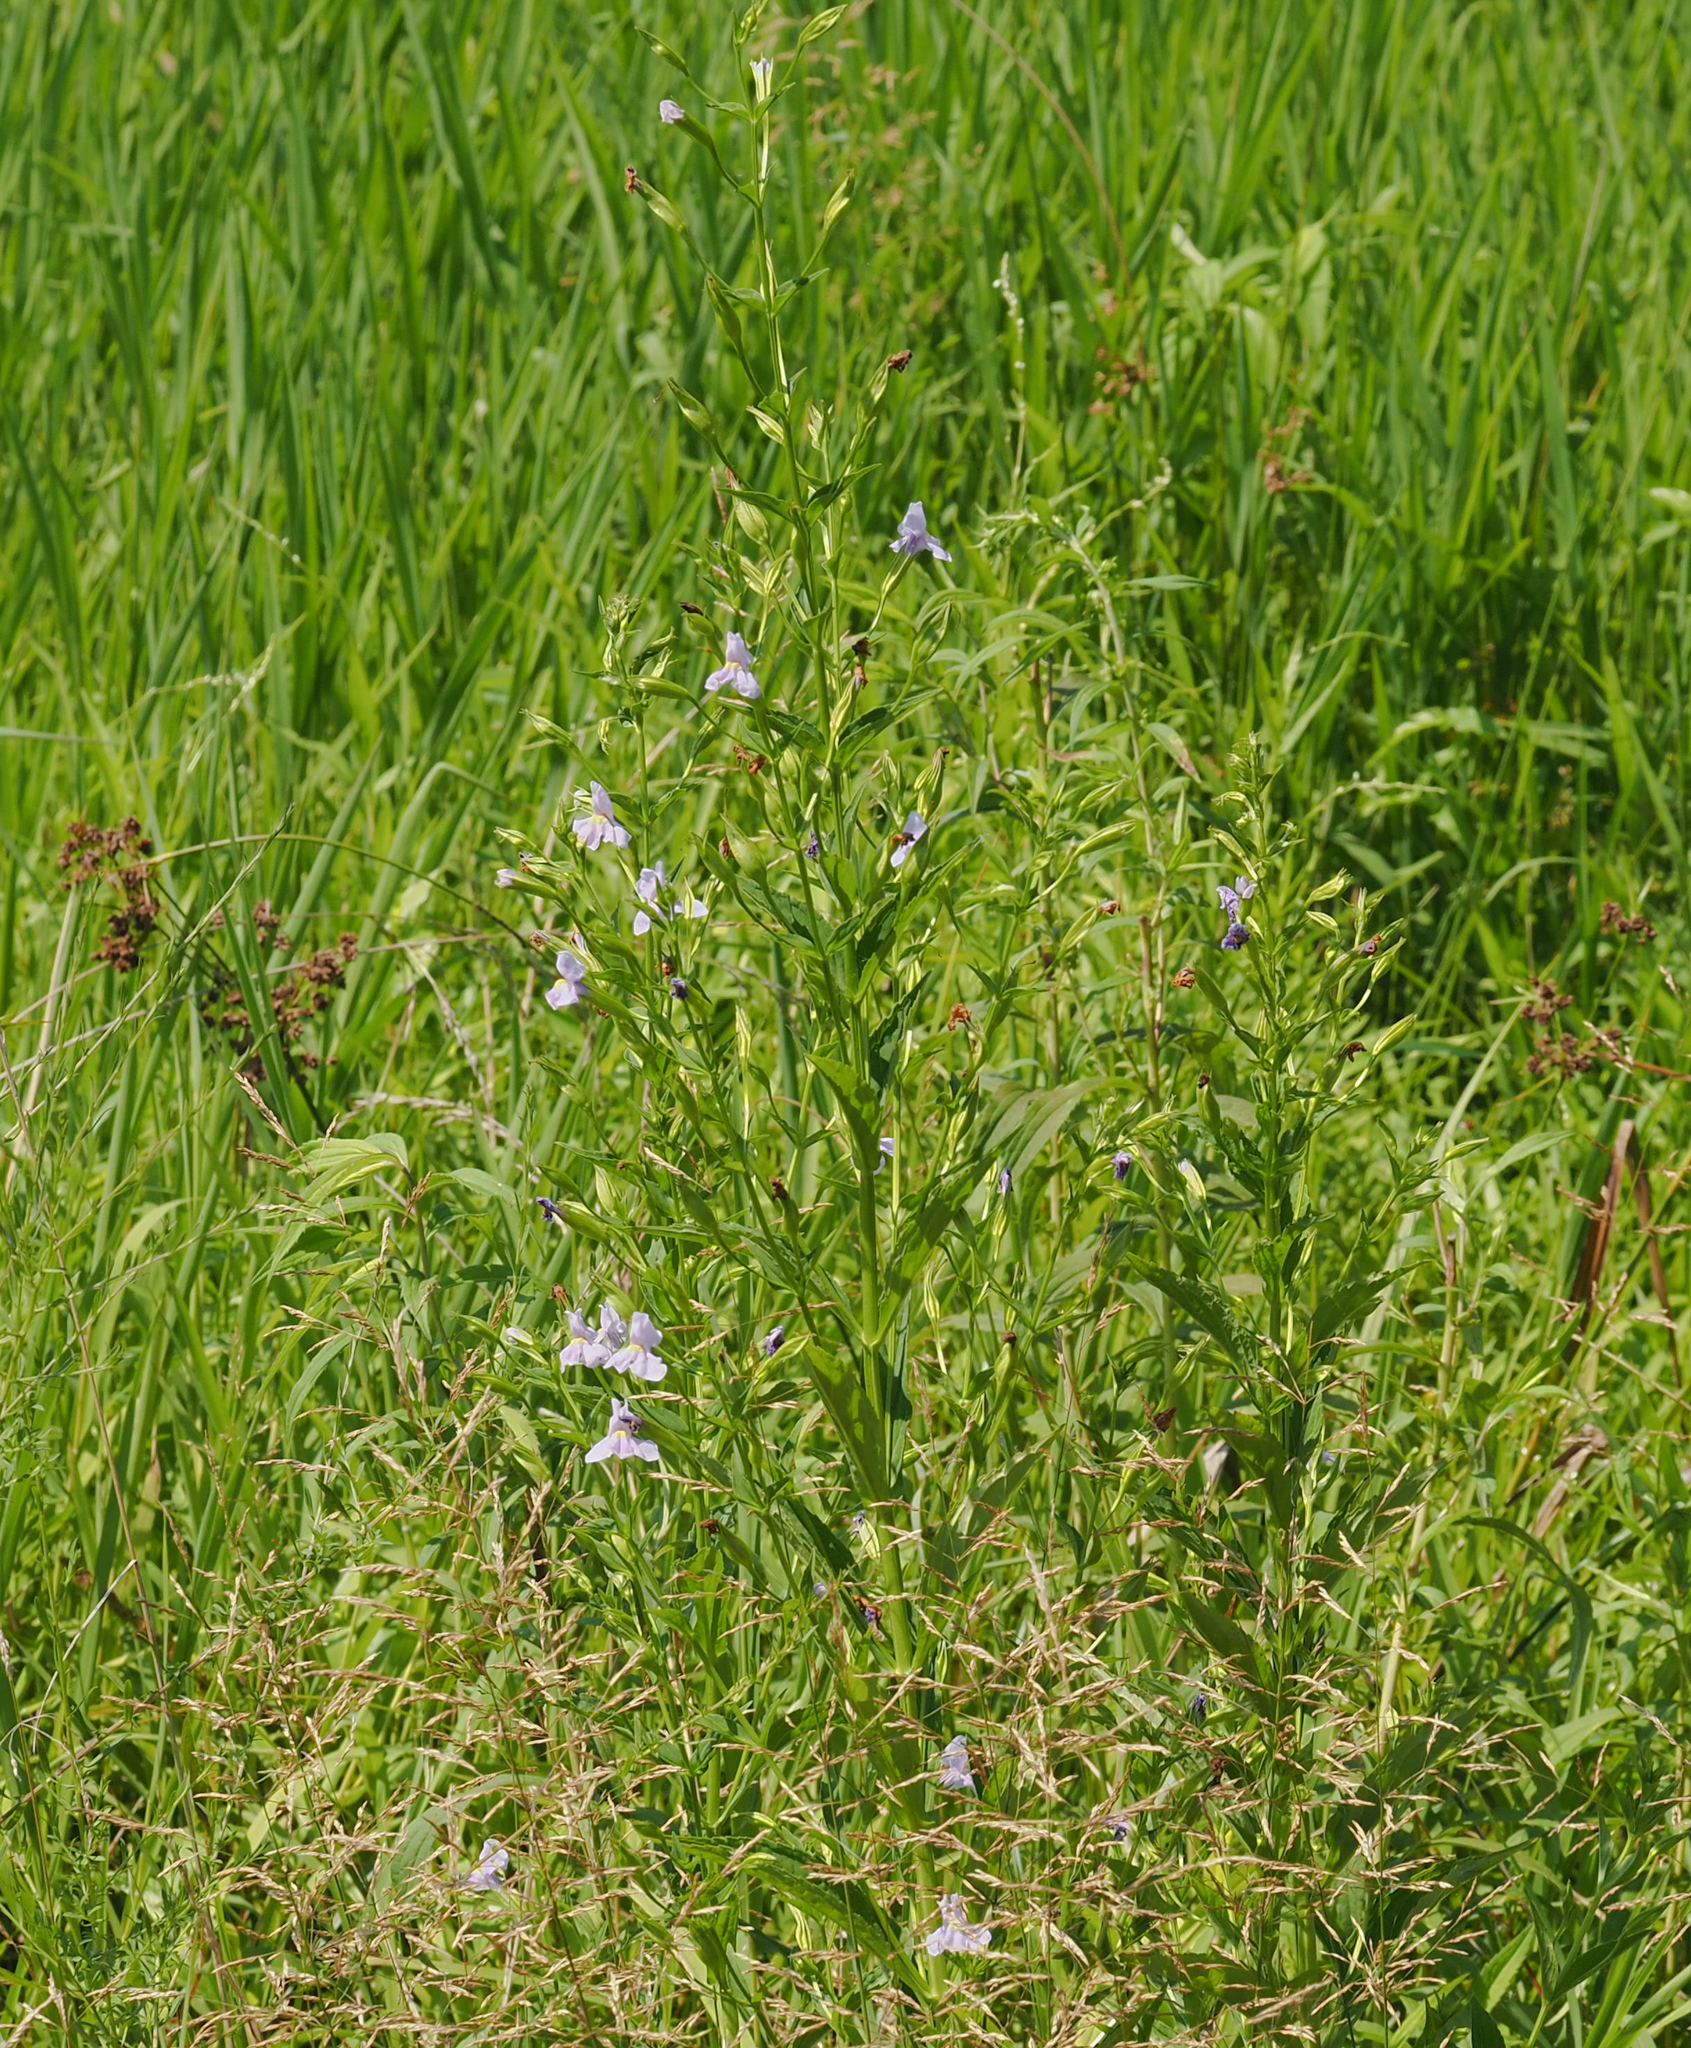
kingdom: Plantae
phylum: Tracheophyta
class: Magnoliopsida
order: Lamiales
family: Phrymaceae
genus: Mimulus
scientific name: Mimulus ringens
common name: Allegheny monkeyflower
